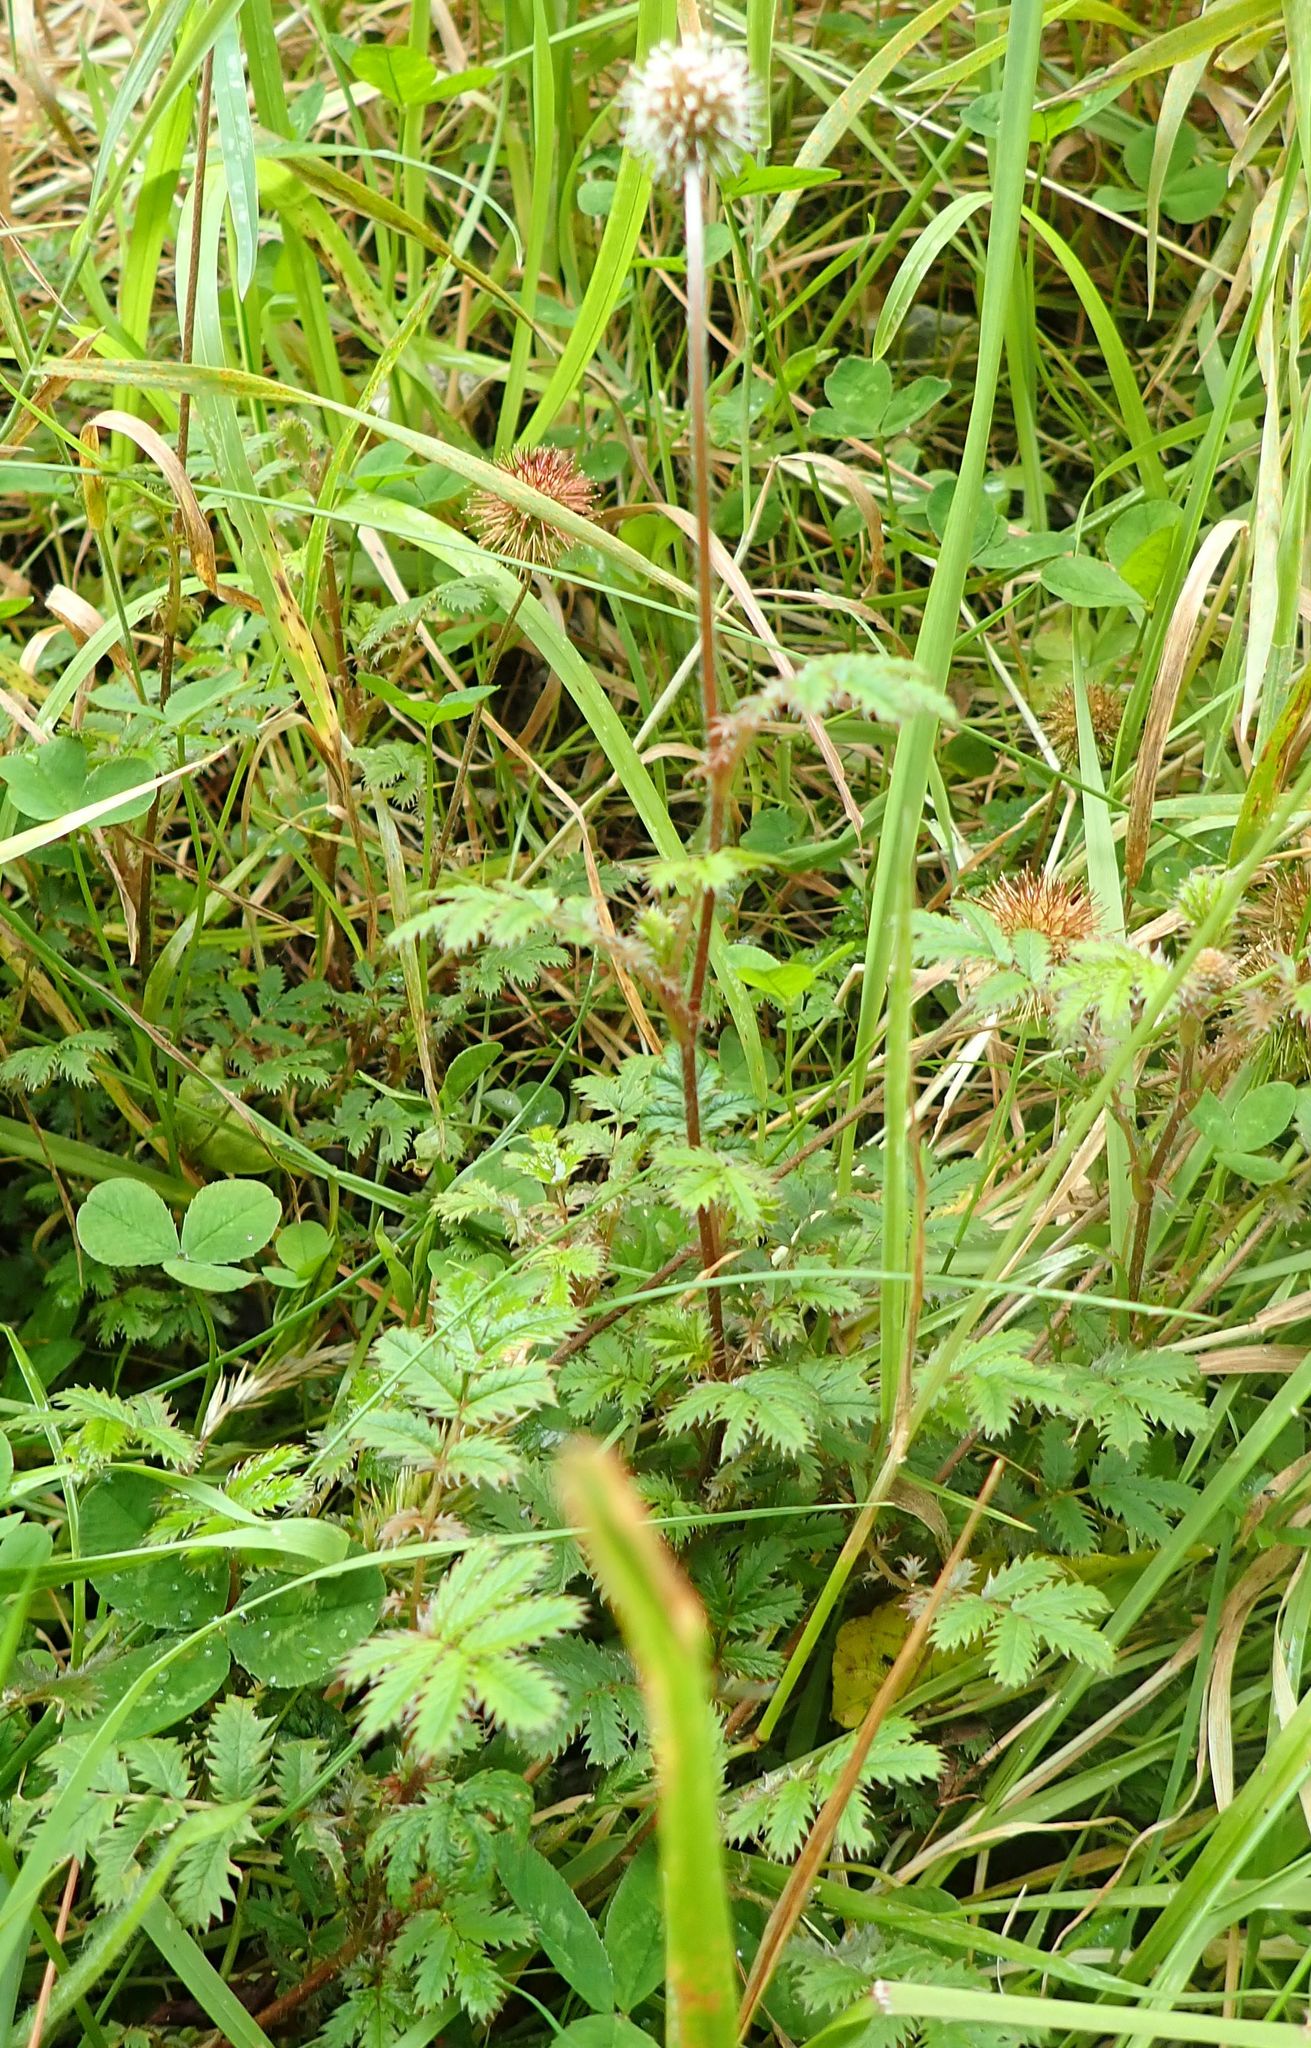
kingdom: Plantae
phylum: Tracheophyta
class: Magnoliopsida
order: Rosales
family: Rosaceae
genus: Acaena
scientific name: Acaena anserinifolia
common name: Bronze pirri-pirri-bur
